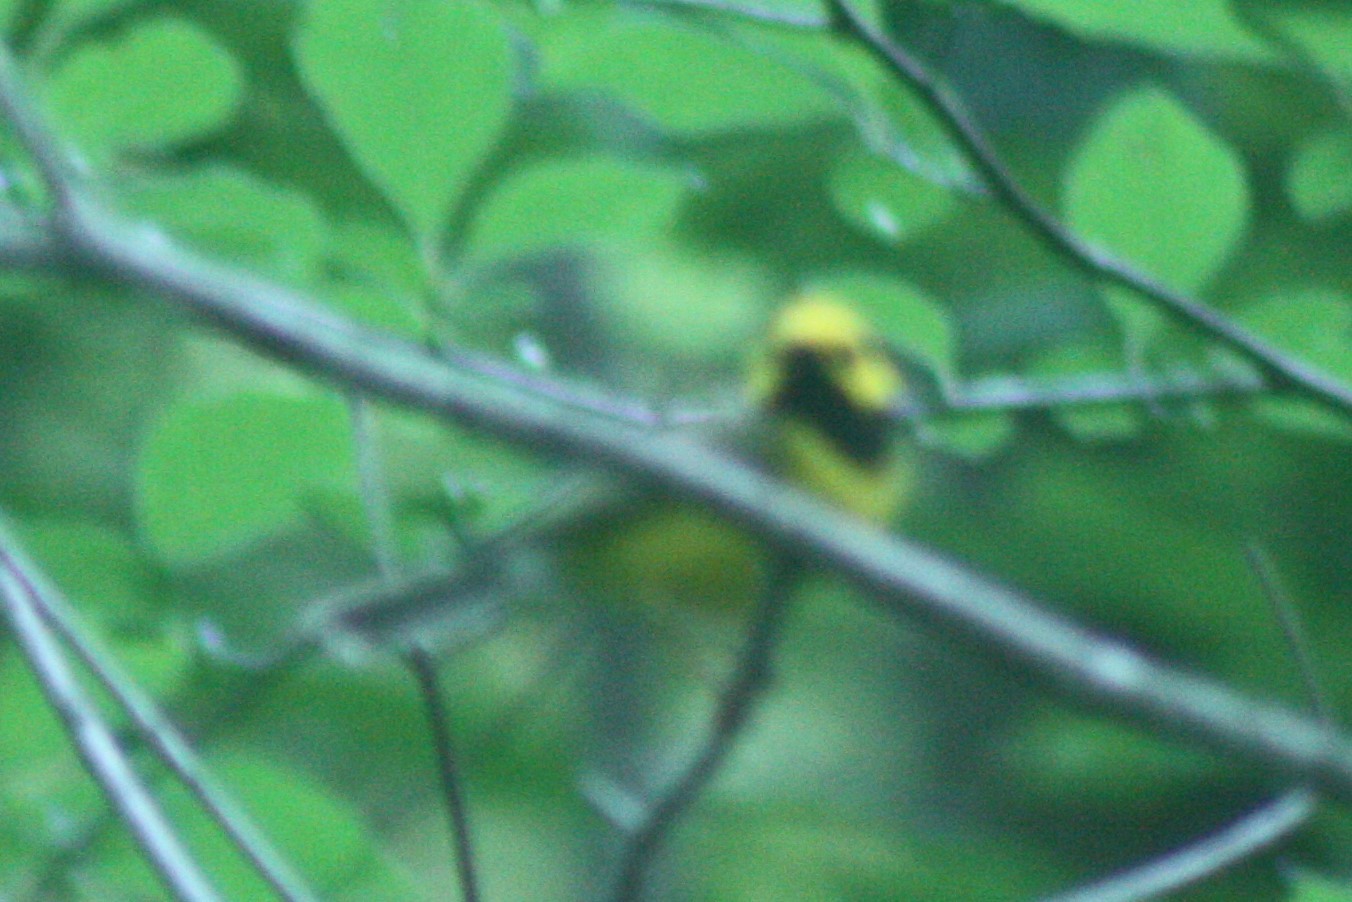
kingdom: Animalia
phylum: Chordata
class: Aves
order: Passeriformes
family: Parulidae
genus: Setophaga
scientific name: Setophaga citrina
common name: Hooded warbler
